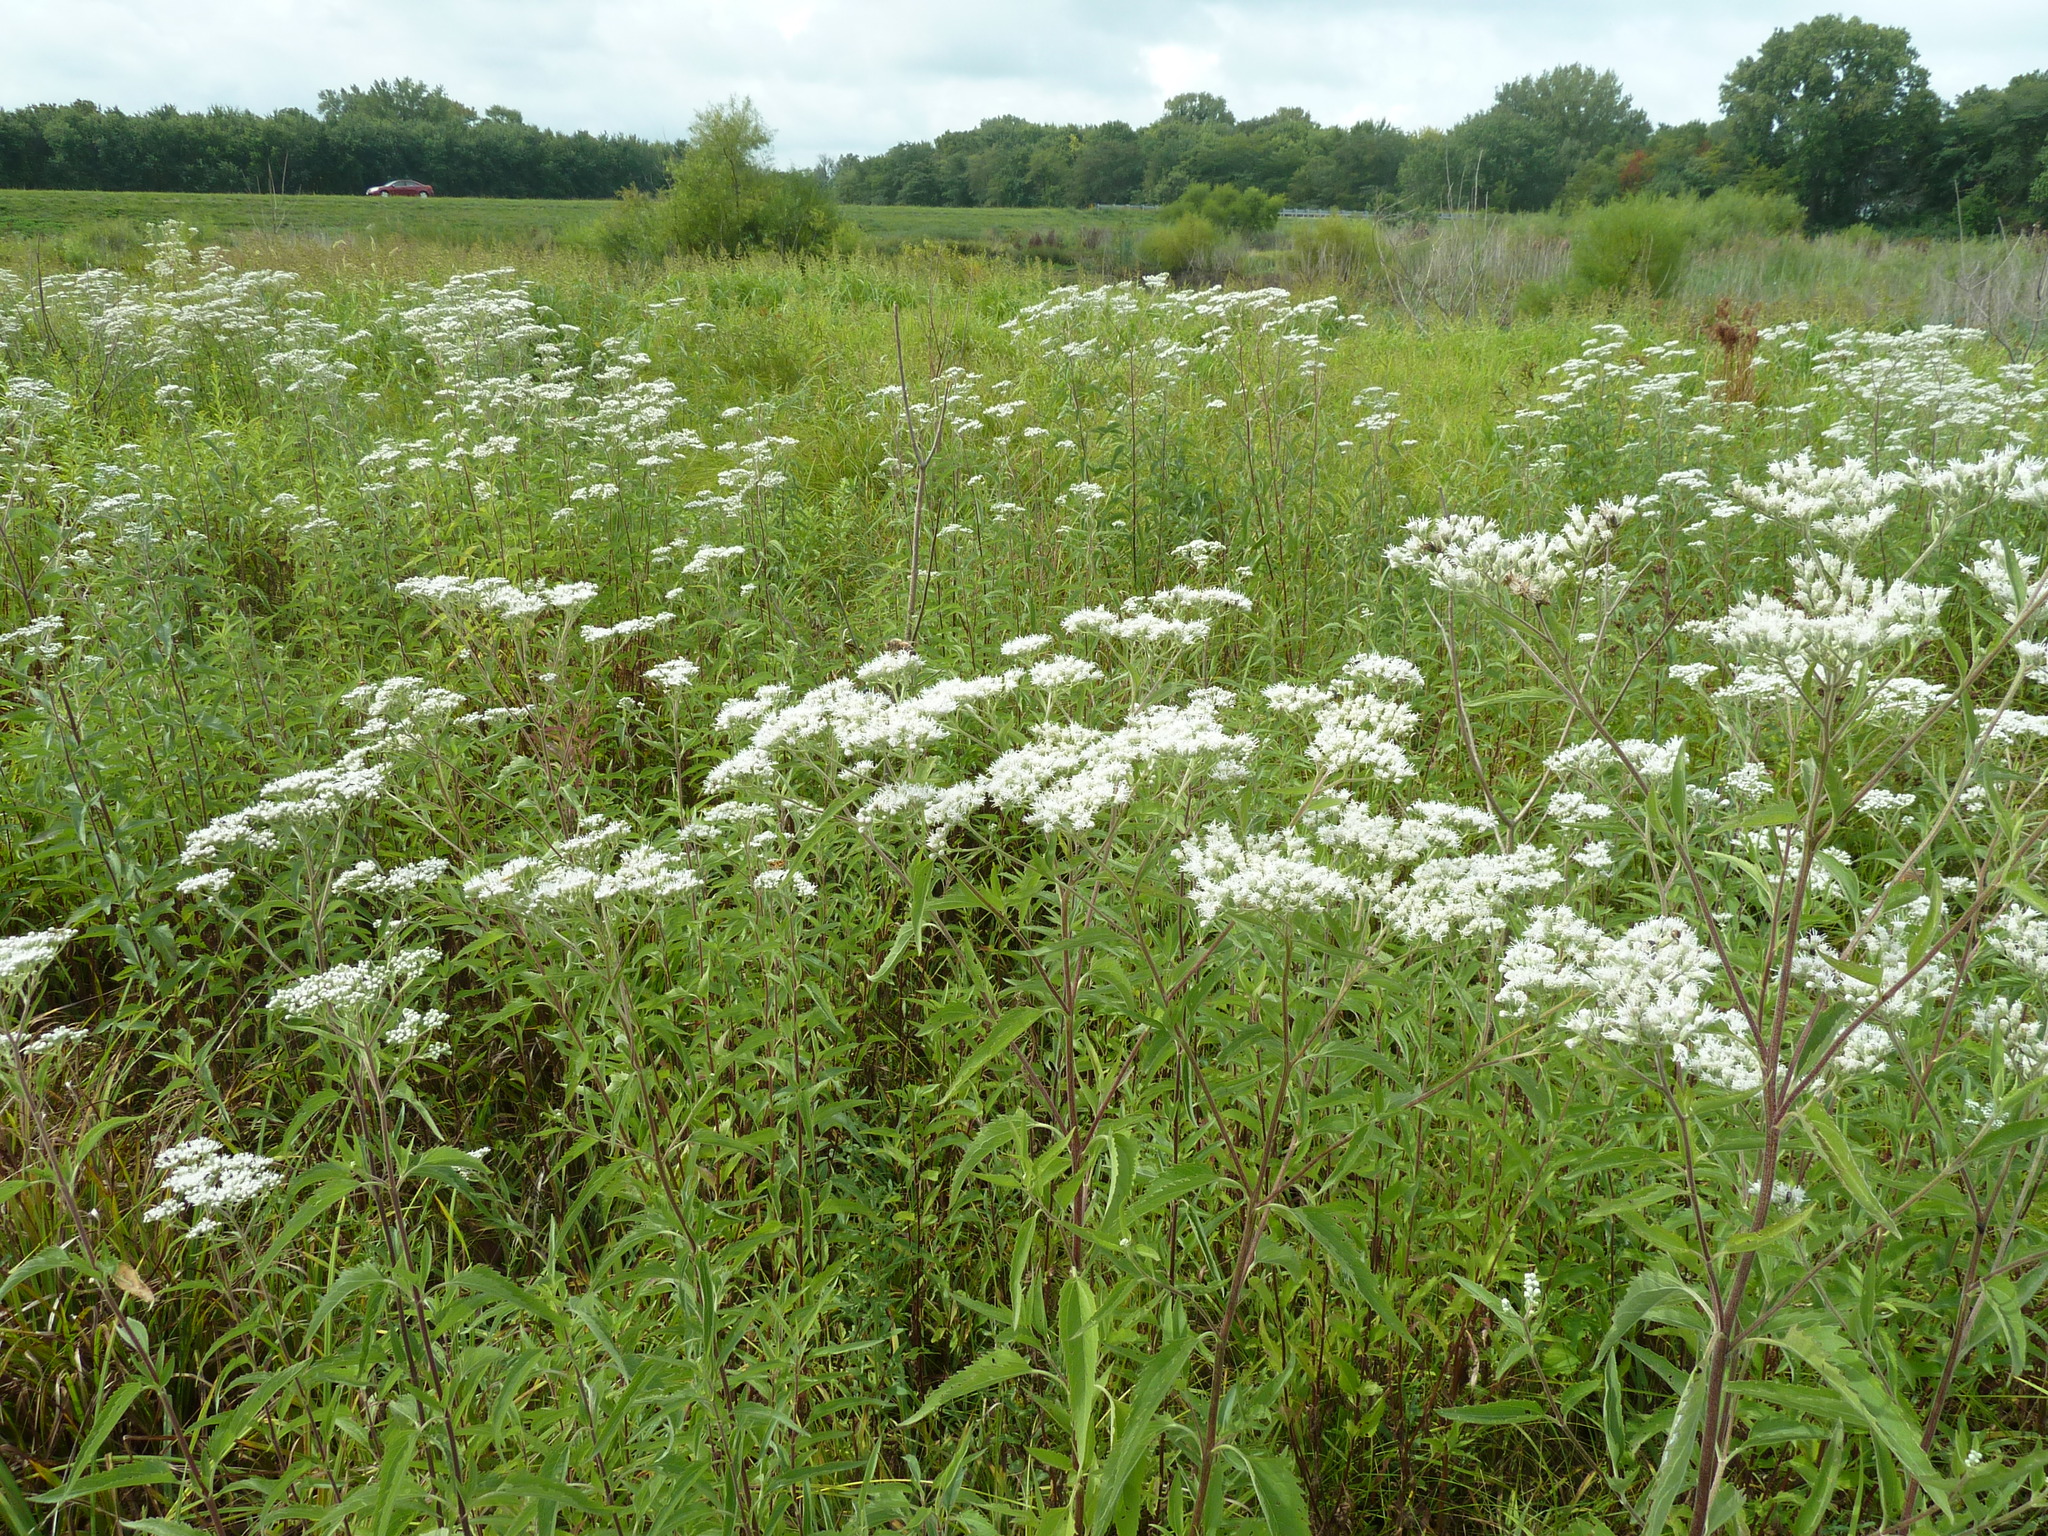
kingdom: Plantae
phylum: Tracheophyta
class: Magnoliopsida
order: Asterales
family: Asteraceae
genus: Eupatorium
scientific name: Eupatorium serotinum
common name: Late boneset
